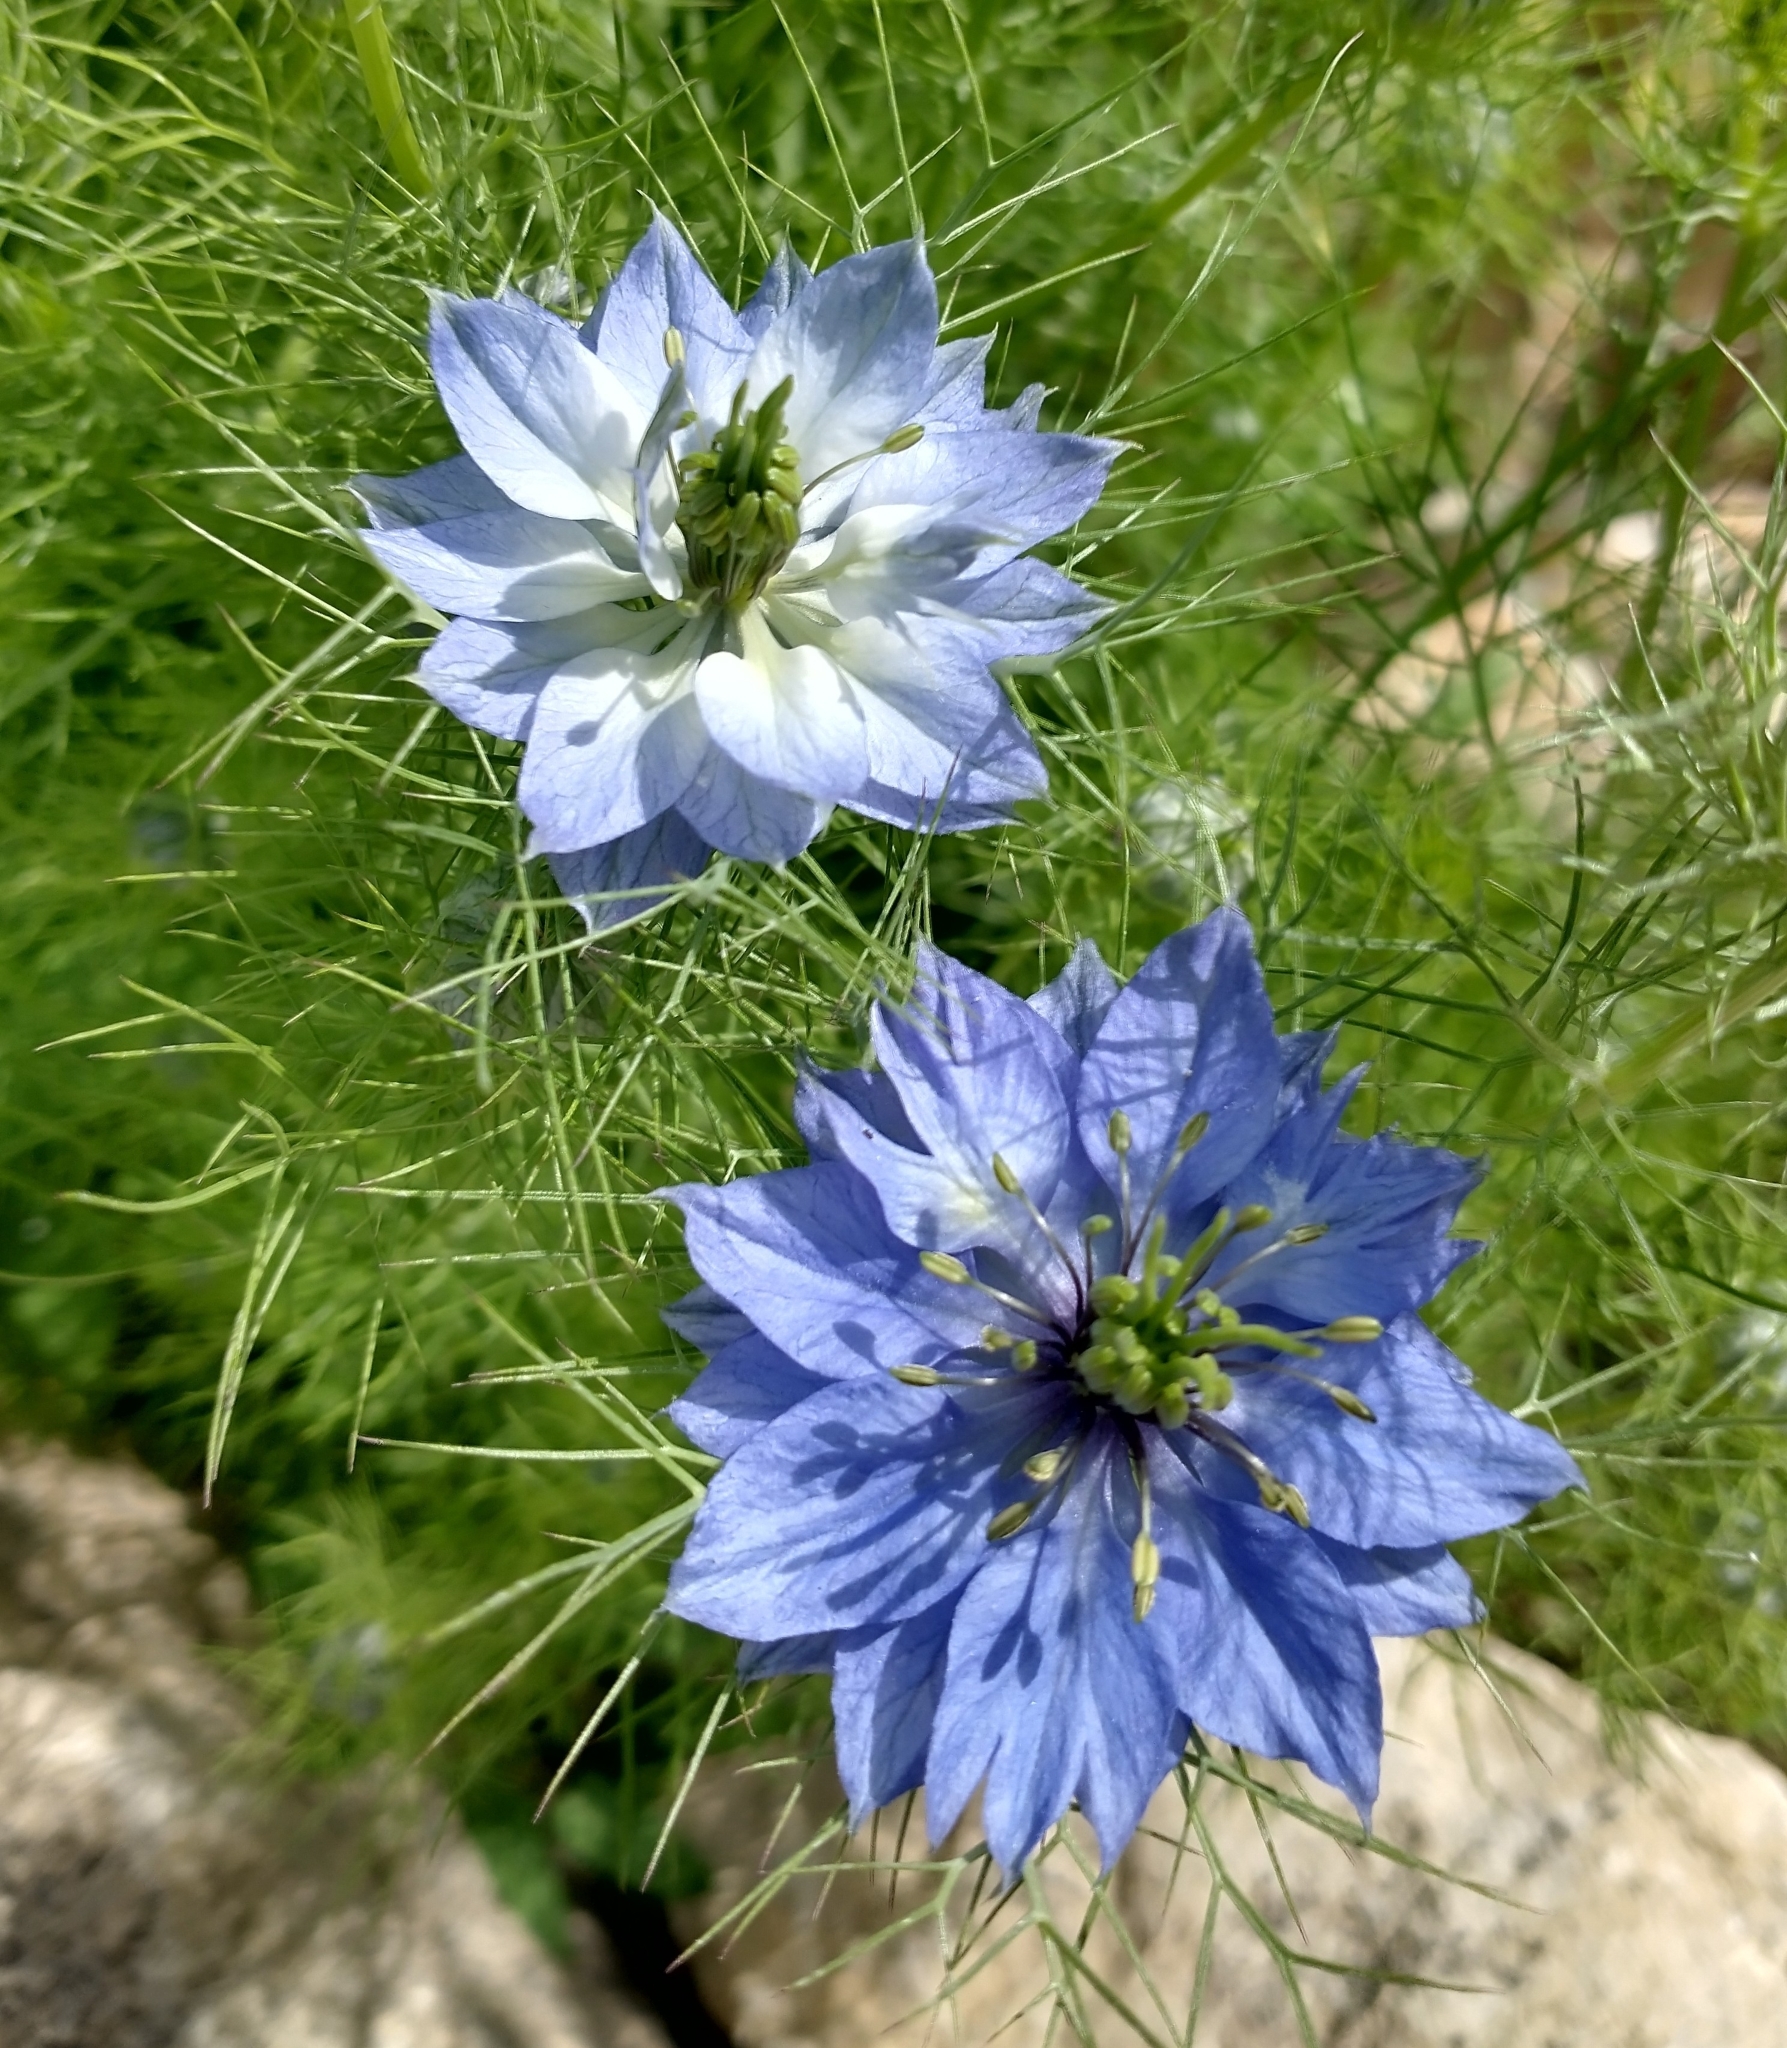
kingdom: Plantae
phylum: Tracheophyta
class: Magnoliopsida
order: Ranunculales
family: Ranunculaceae
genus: Nigella
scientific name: Nigella damascena
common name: Love-in-a-mist
